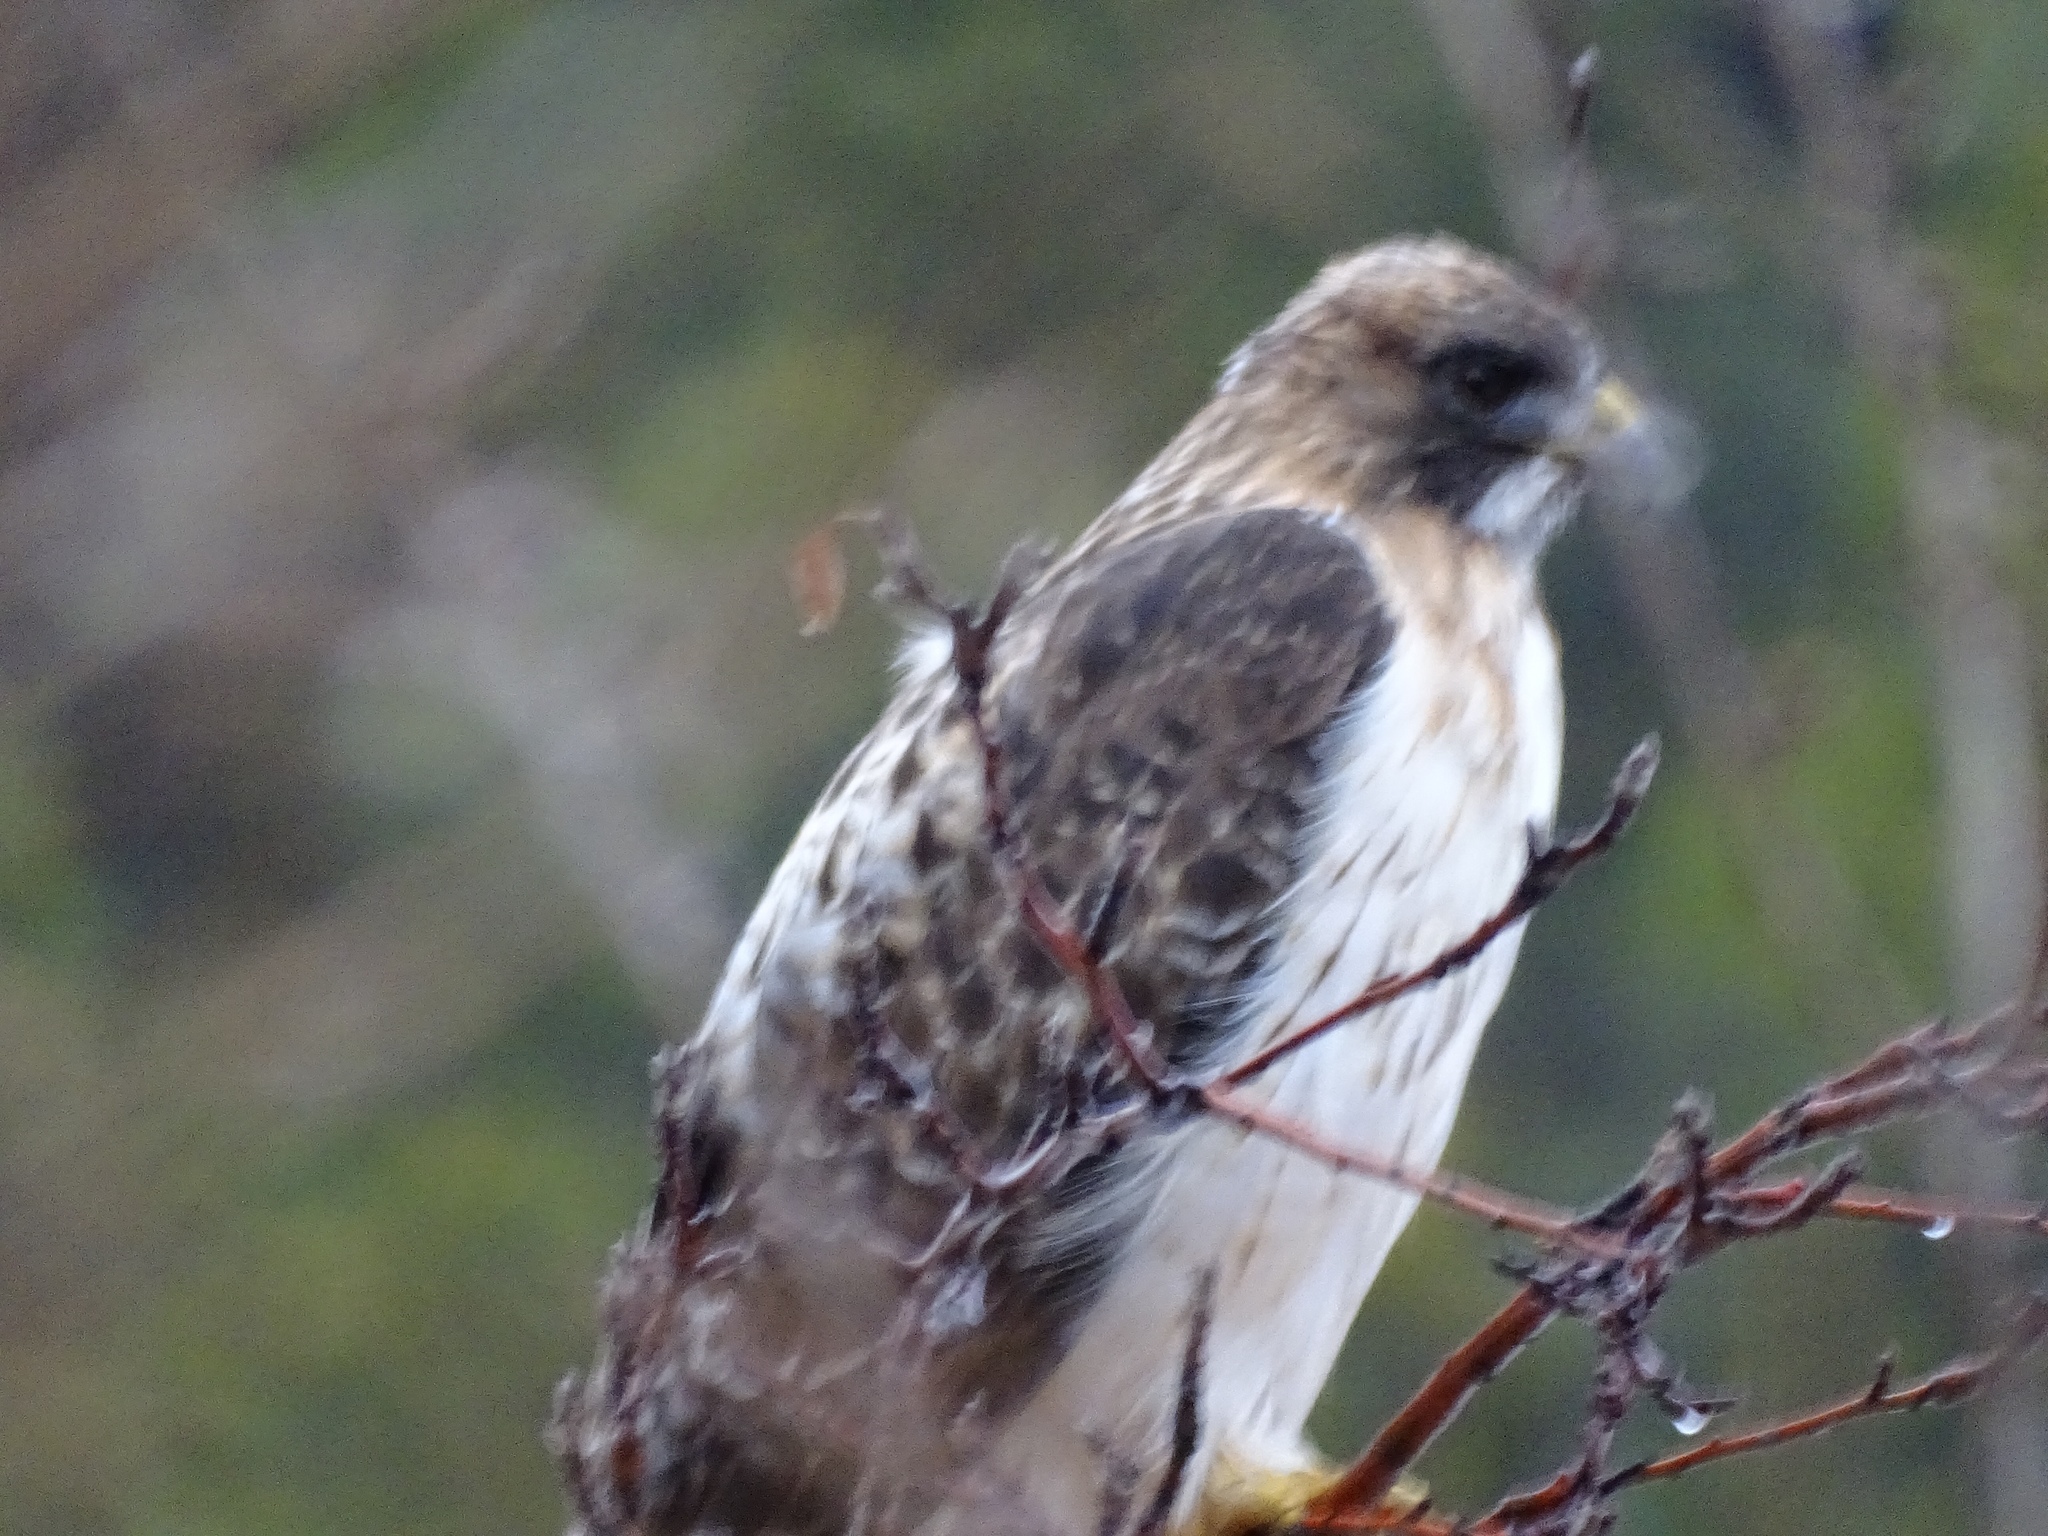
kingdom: Animalia
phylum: Chordata
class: Aves
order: Accipitriformes
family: Accipitridae
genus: Buteo
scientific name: Buteo jamaicensis
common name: Red-tailed hawk
